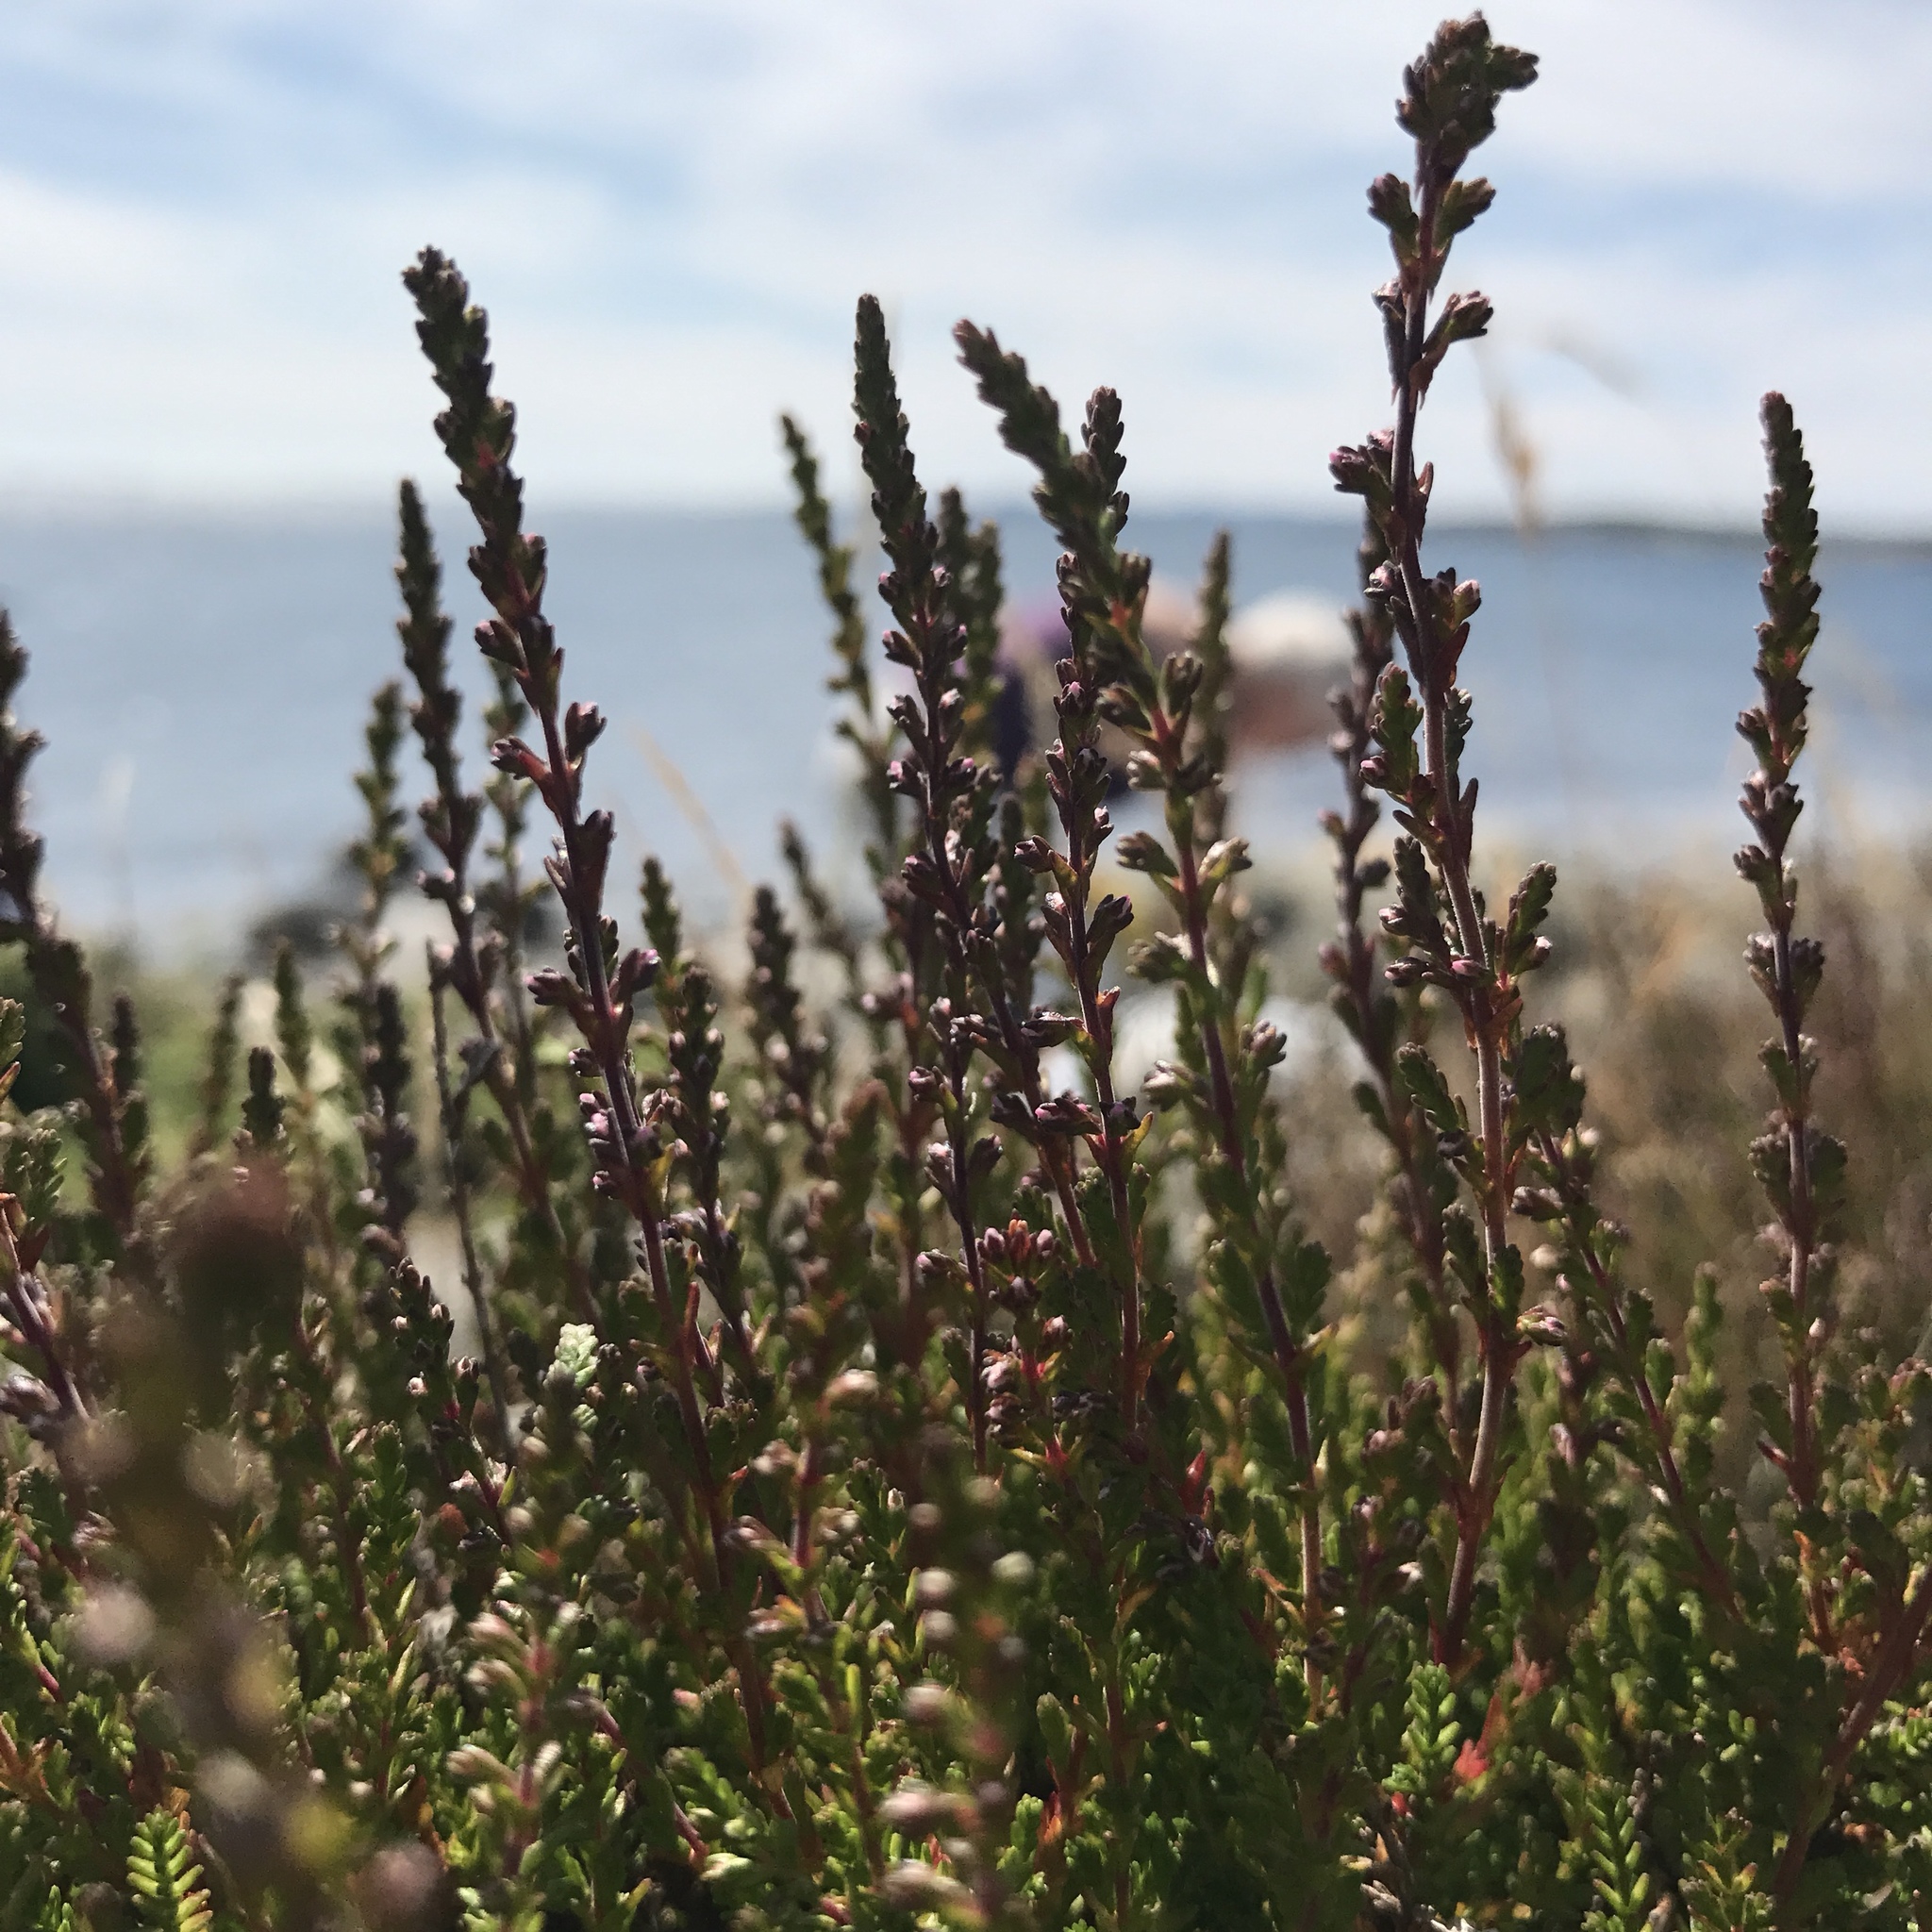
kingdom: Plantae
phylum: Tracheophyta
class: Magnoliopsida
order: Ericales
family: Ericaceae
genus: Calluna
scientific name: Calluna vulgaris
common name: Heather
